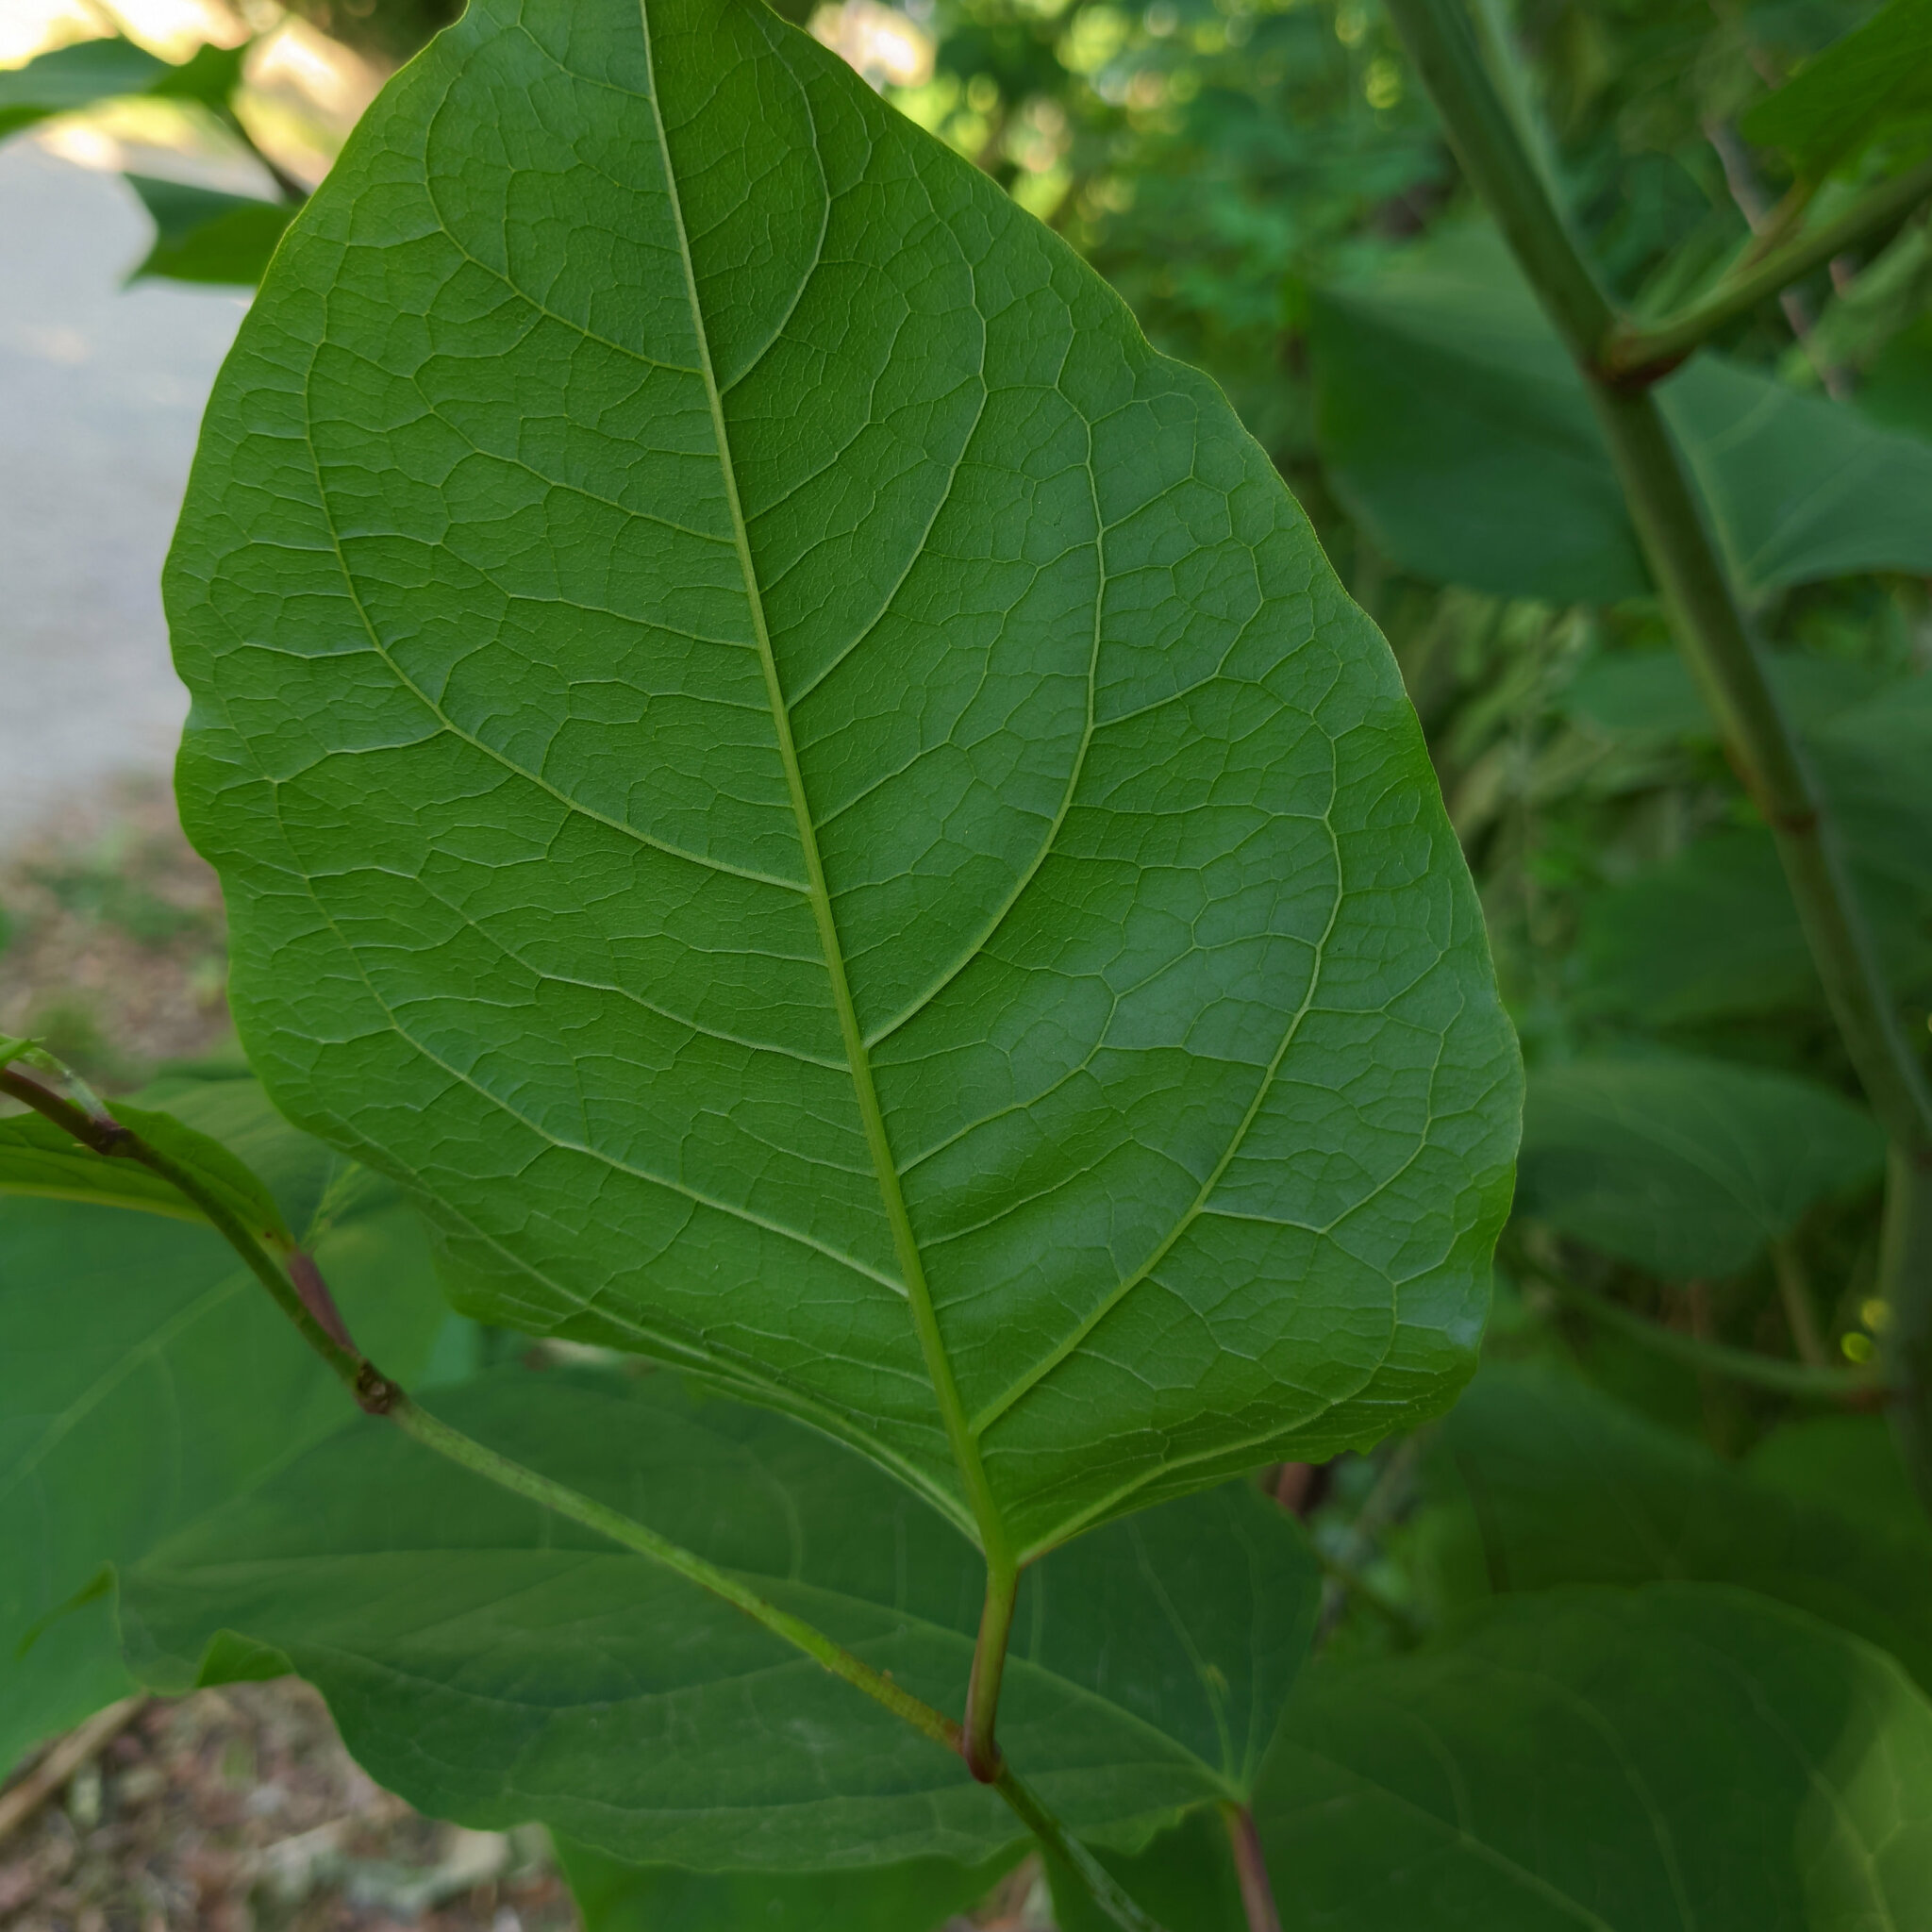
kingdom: Plantae
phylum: Tracheophyta
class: Magnoliopsida
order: Caryophyllales
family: Polygonaceae
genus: Reynoutria
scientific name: Reynoutria japonica
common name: Japanese knotweed
